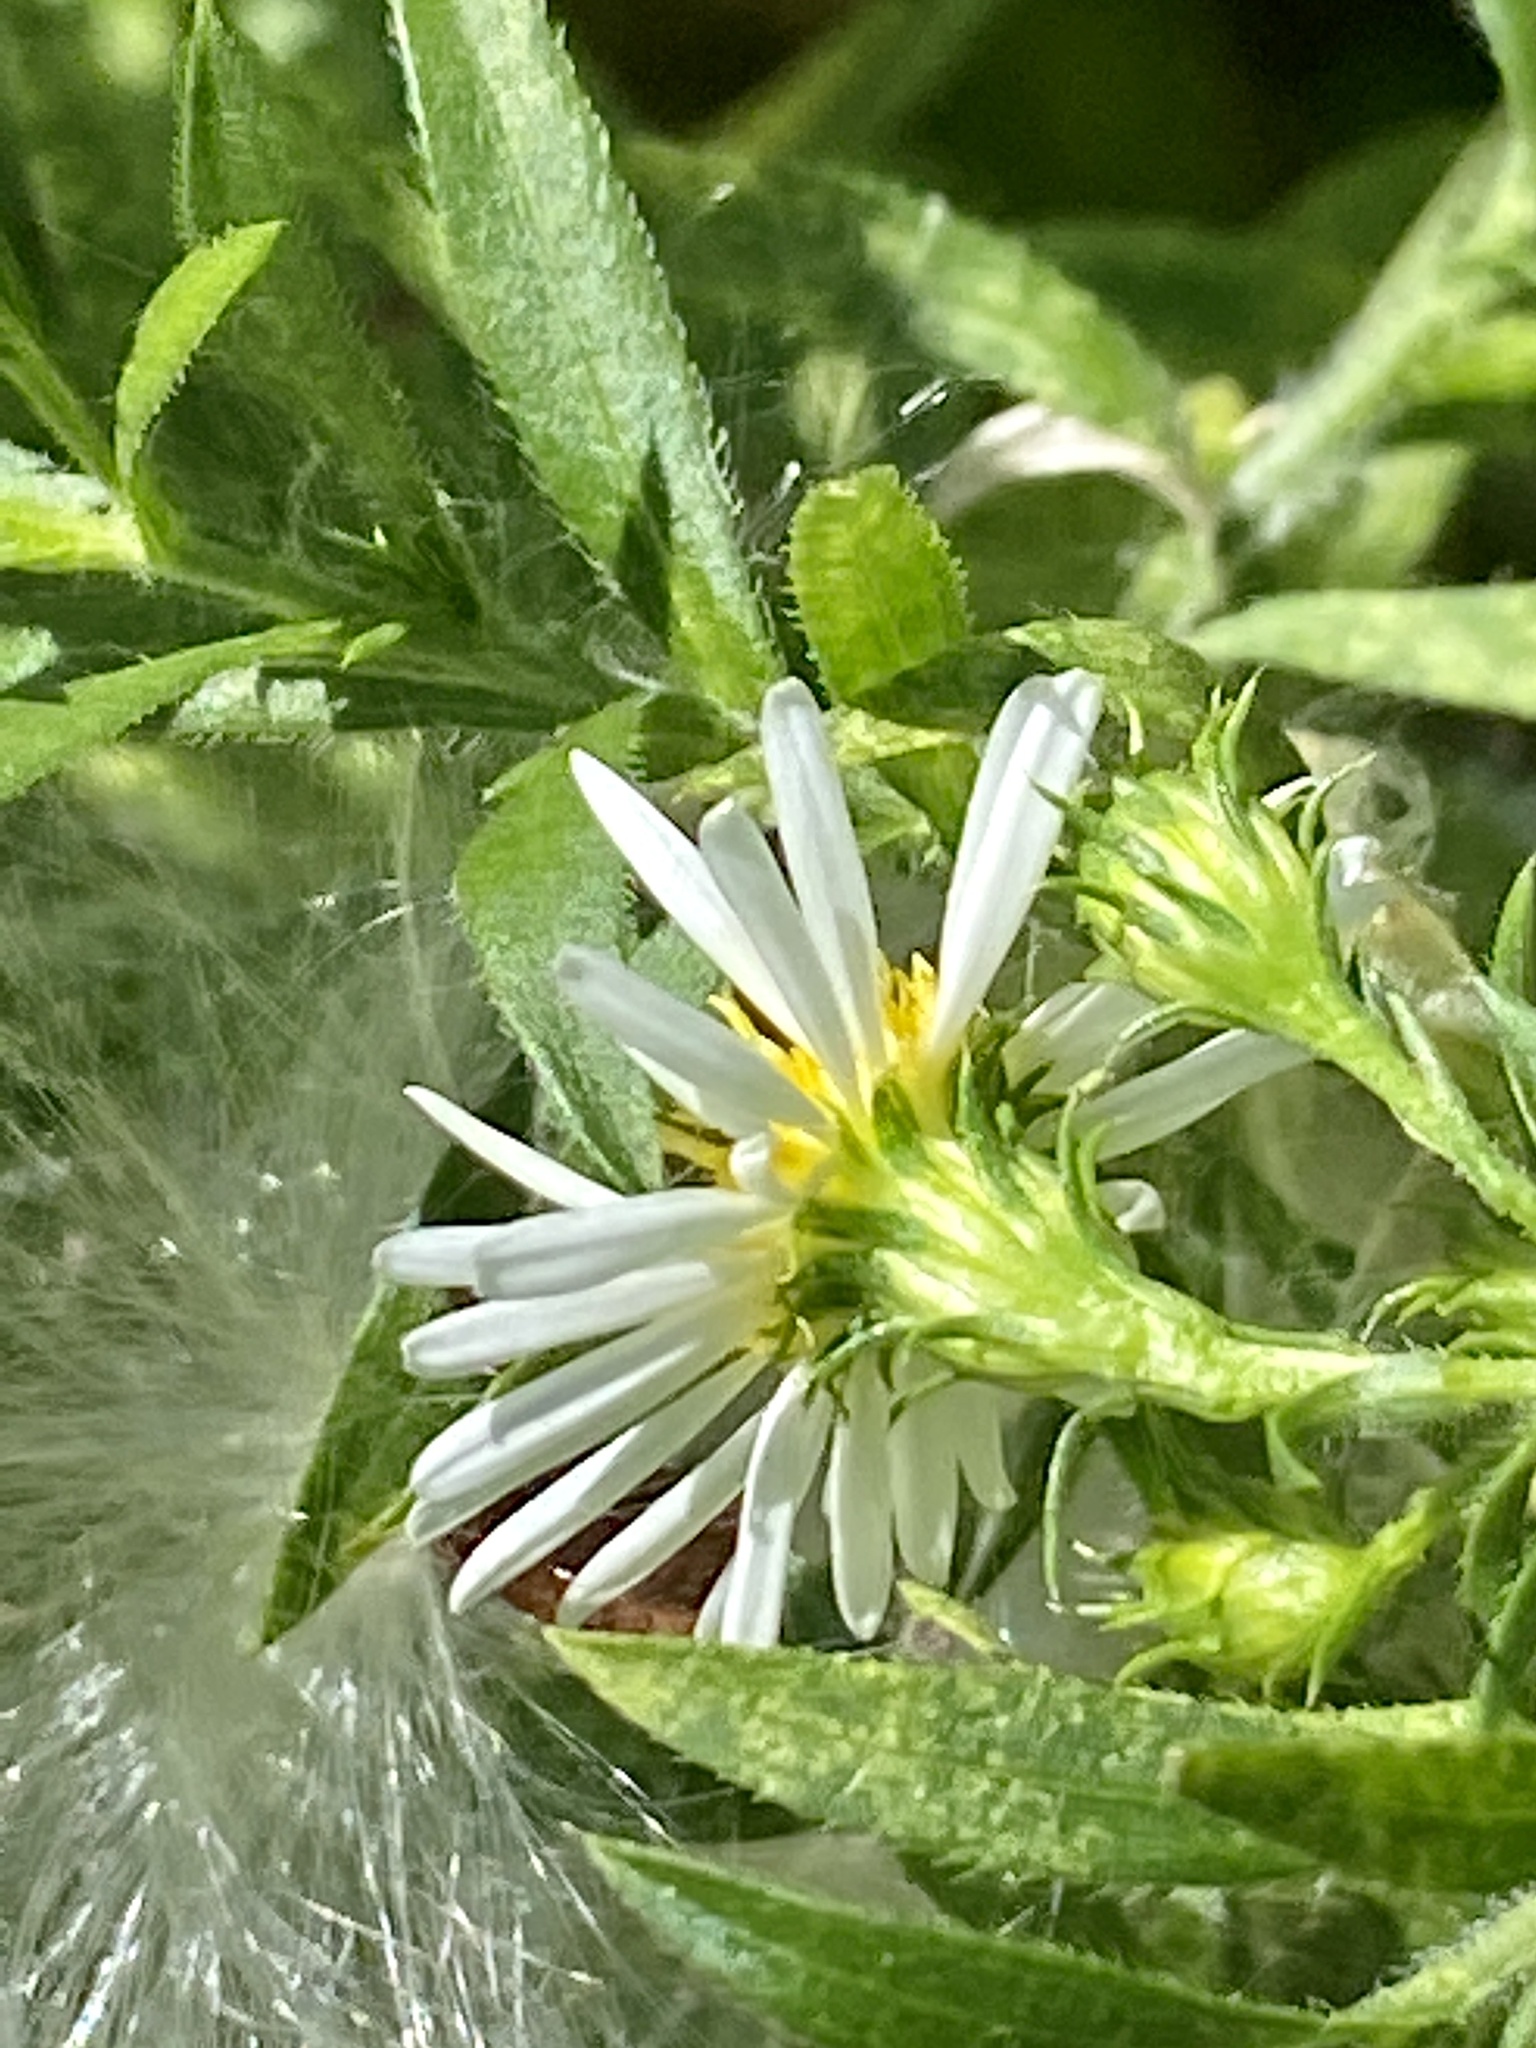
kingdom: Plantae
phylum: Tracheophyta
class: Magnoliopsida
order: Asterales
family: Asteraceae
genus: Symphyotrichum
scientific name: Symphyotrichum pilosum
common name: Awl aster
